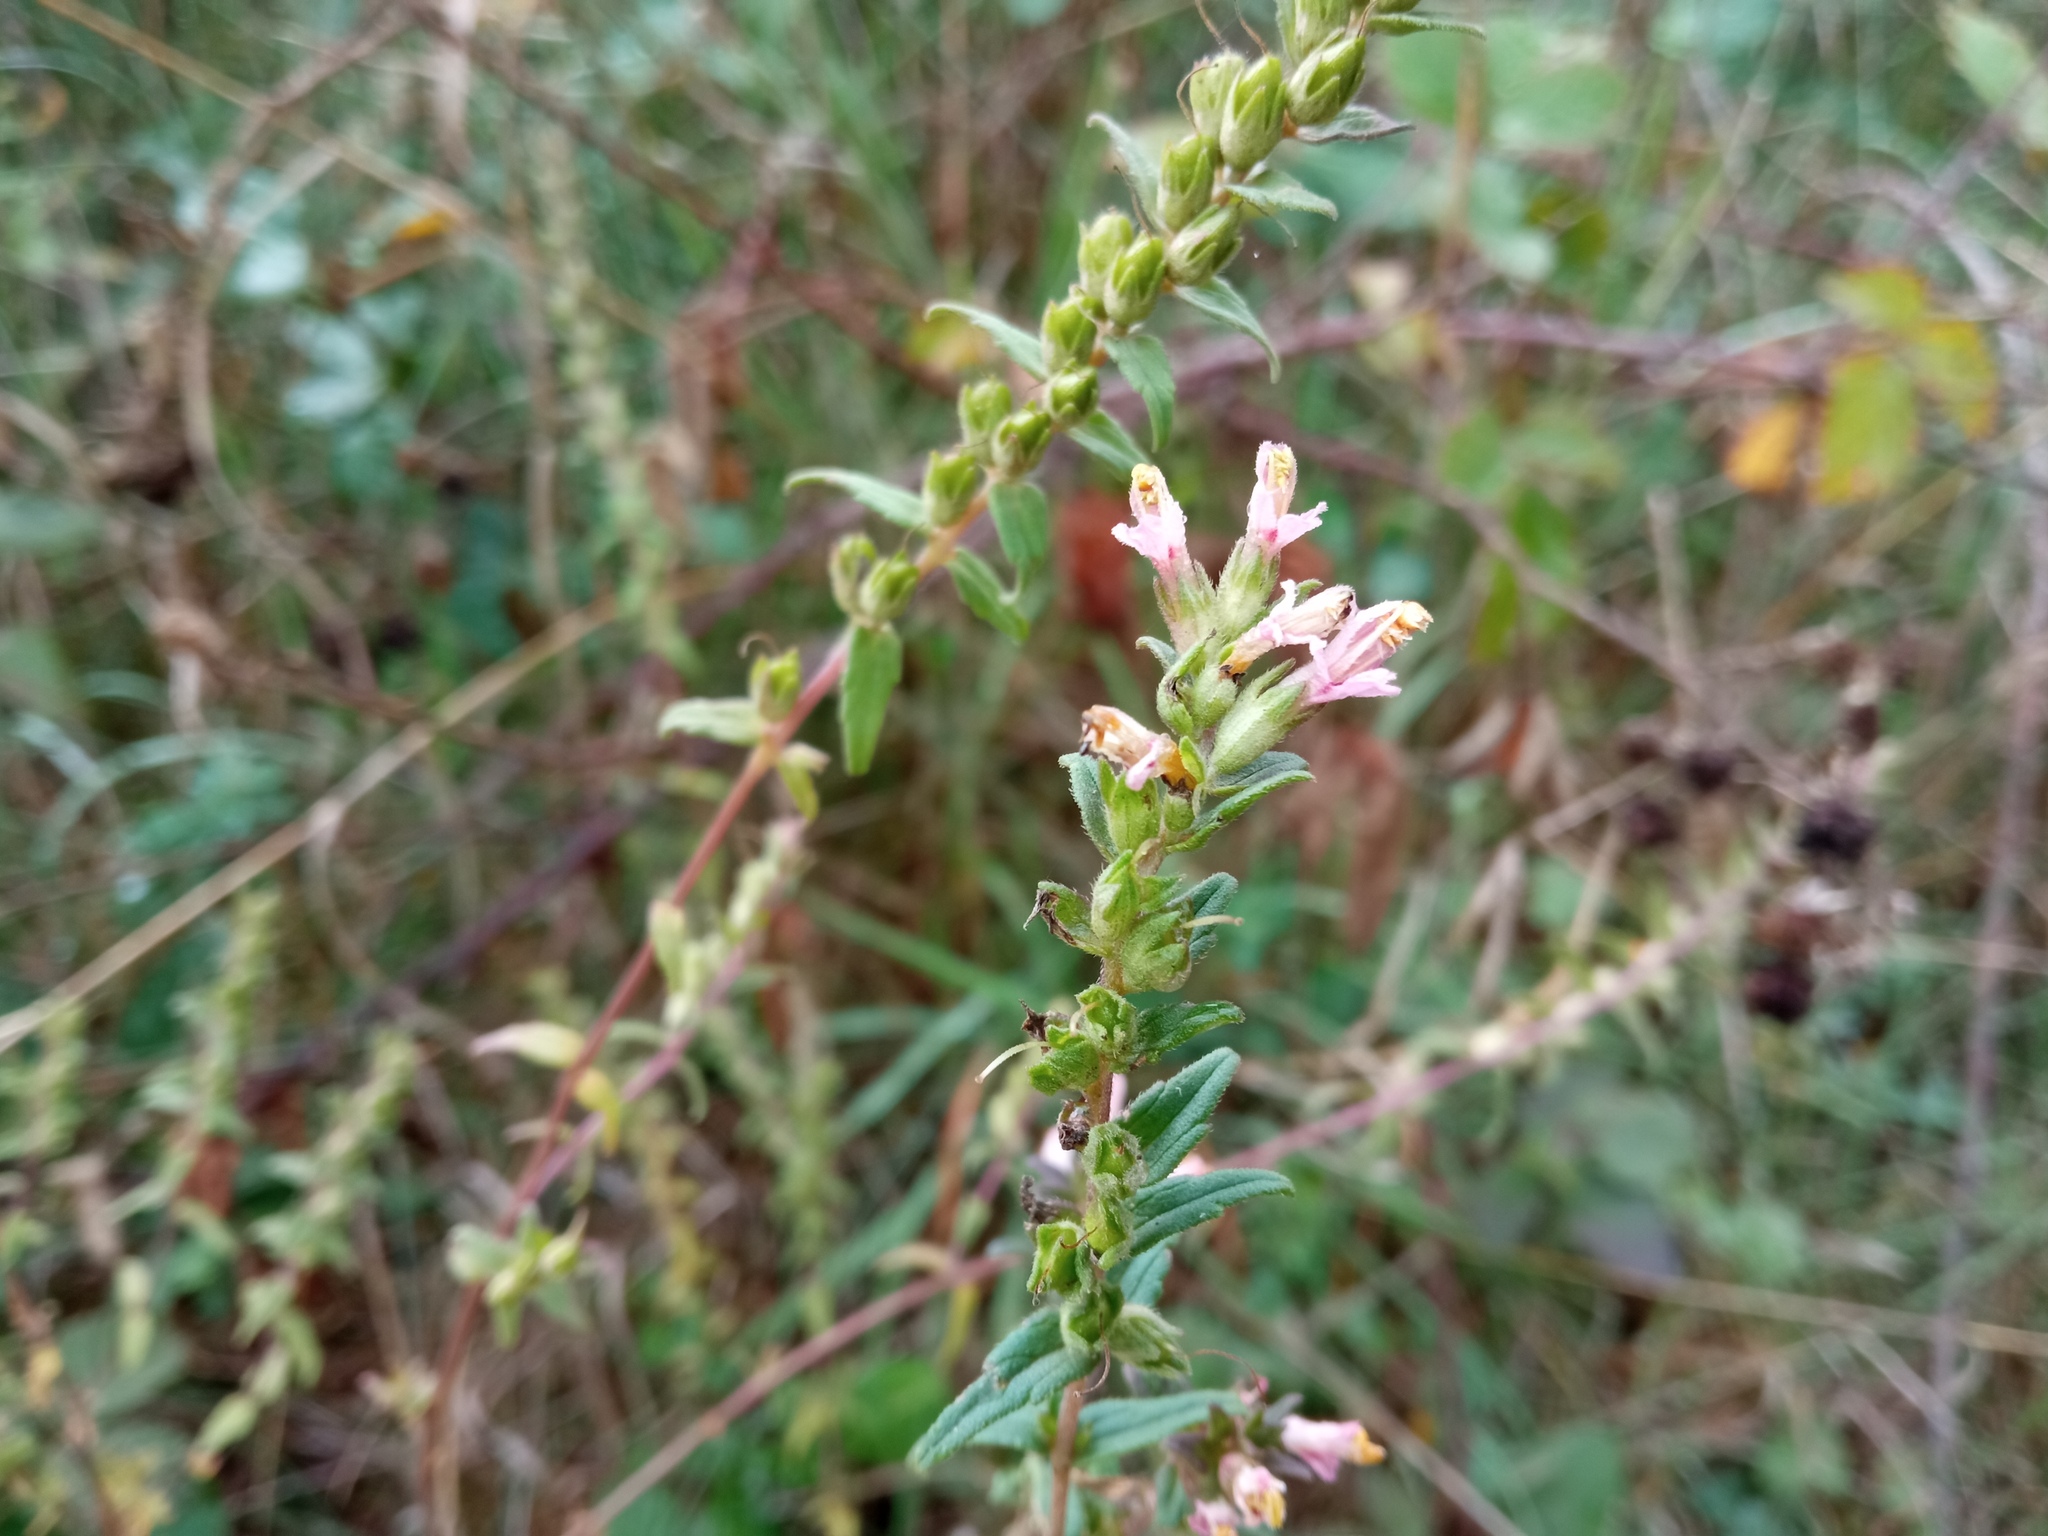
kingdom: Plantae
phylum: Tracheophyta
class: Magnoliopsida
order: Lamiales
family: Orobanchaceae
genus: Odontites
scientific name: Odontites vernus
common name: Red bartsia
